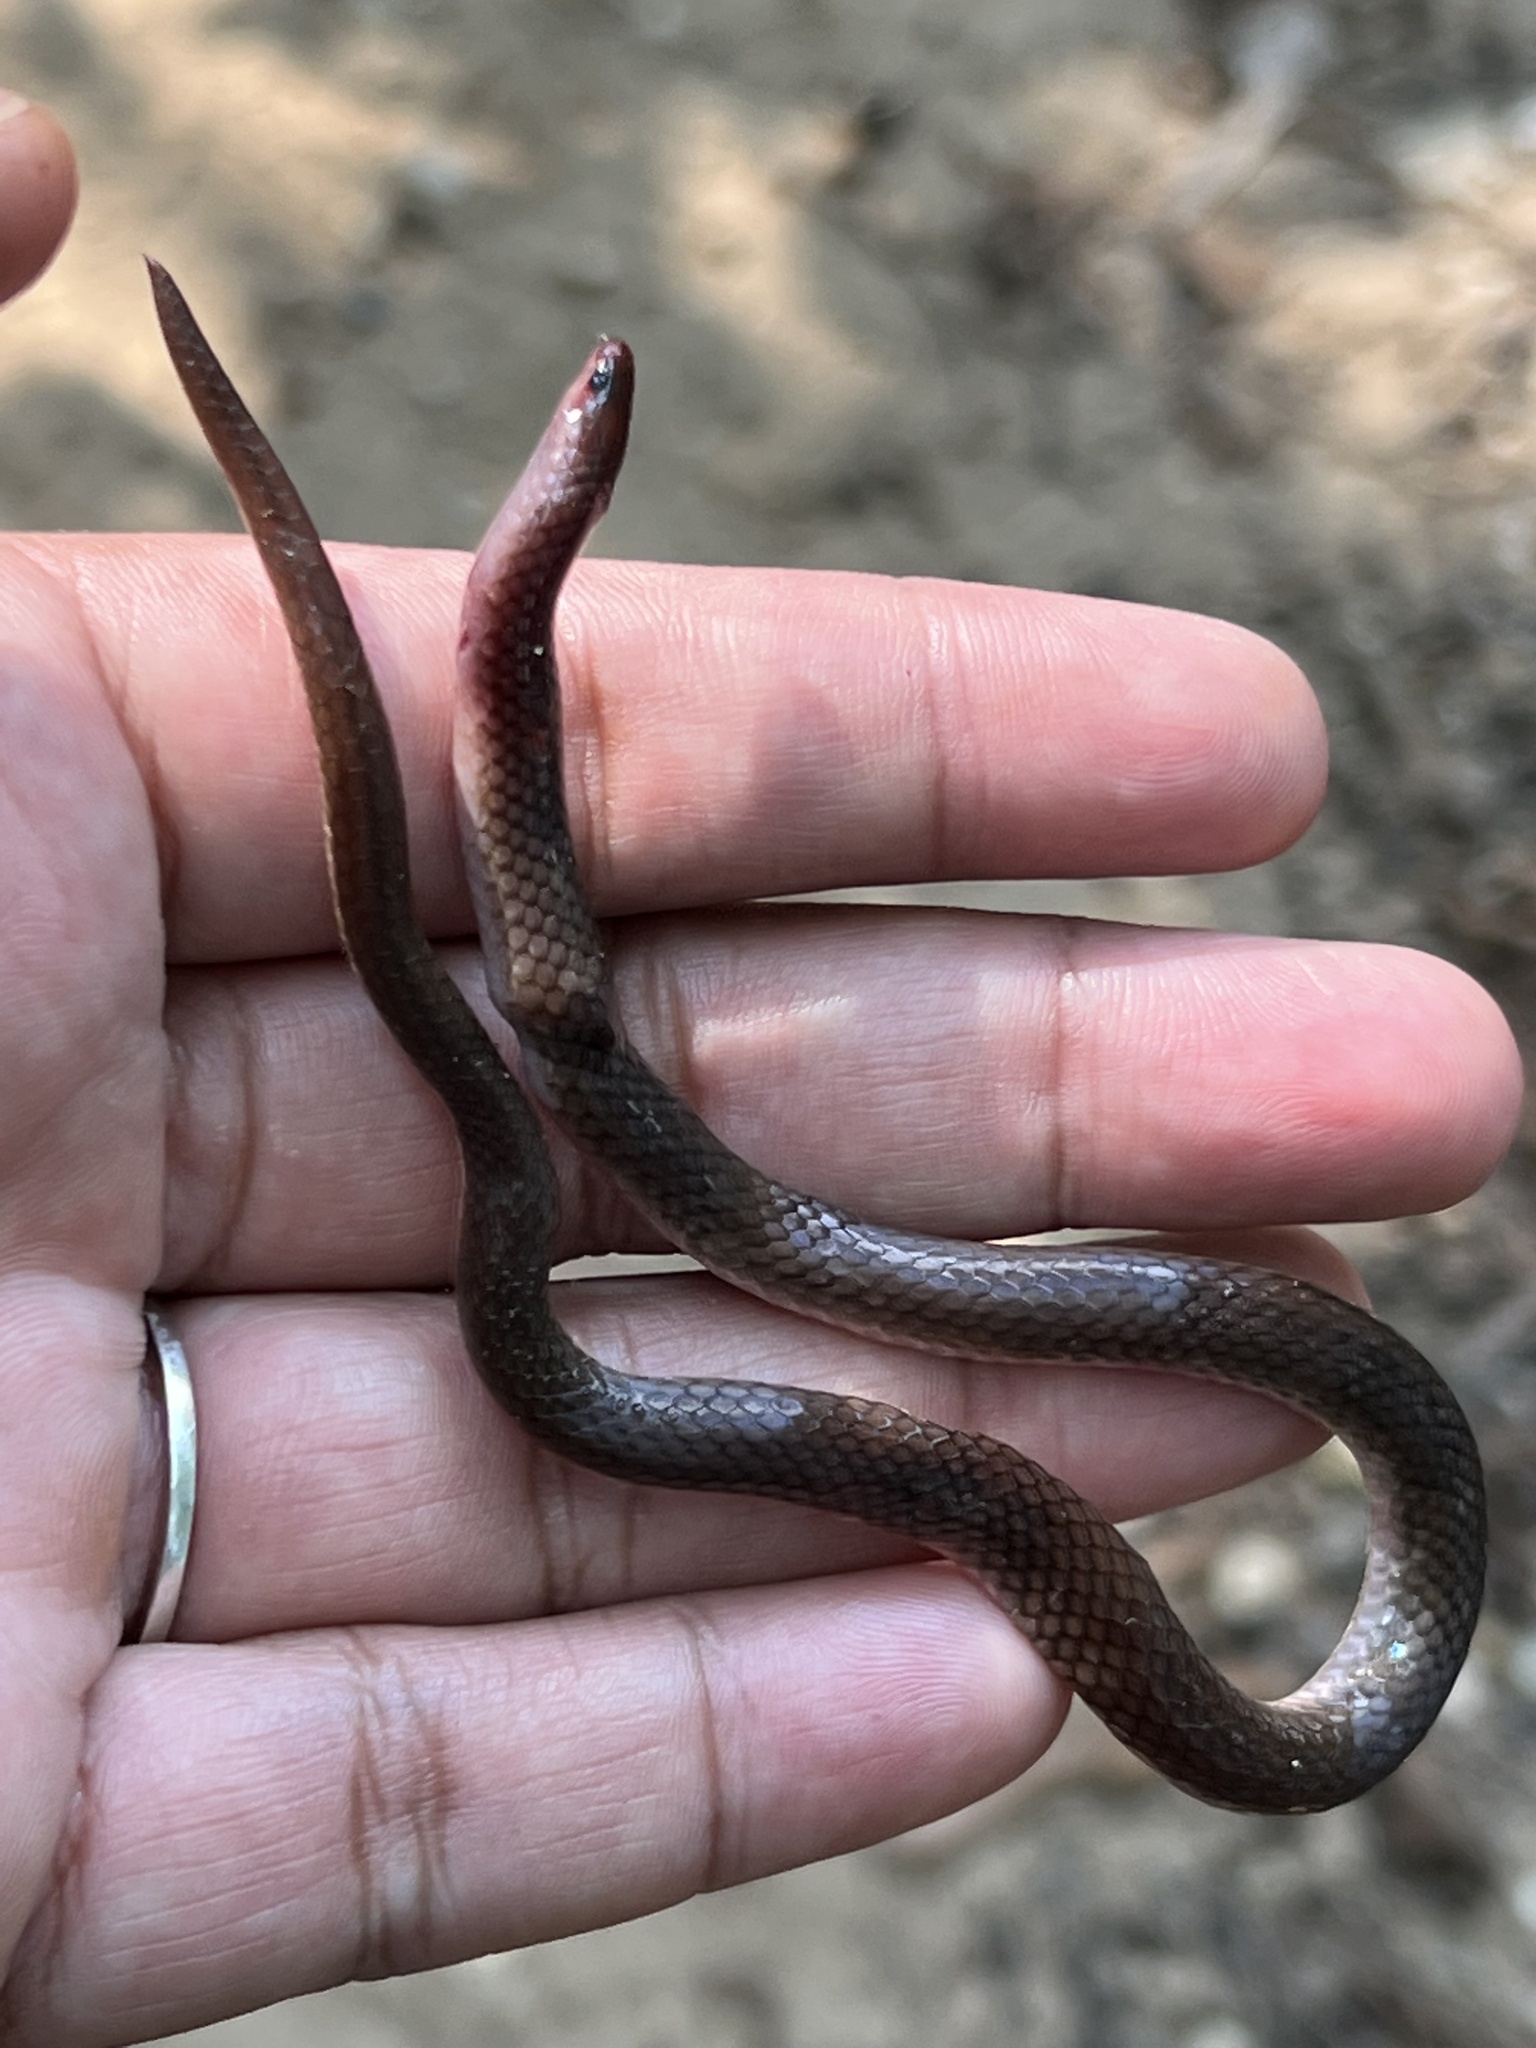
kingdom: Animalia
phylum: Chordata
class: Squamata
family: Colubridae
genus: Carphophis
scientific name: Carphophis amoenus
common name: Eastern worm snake
